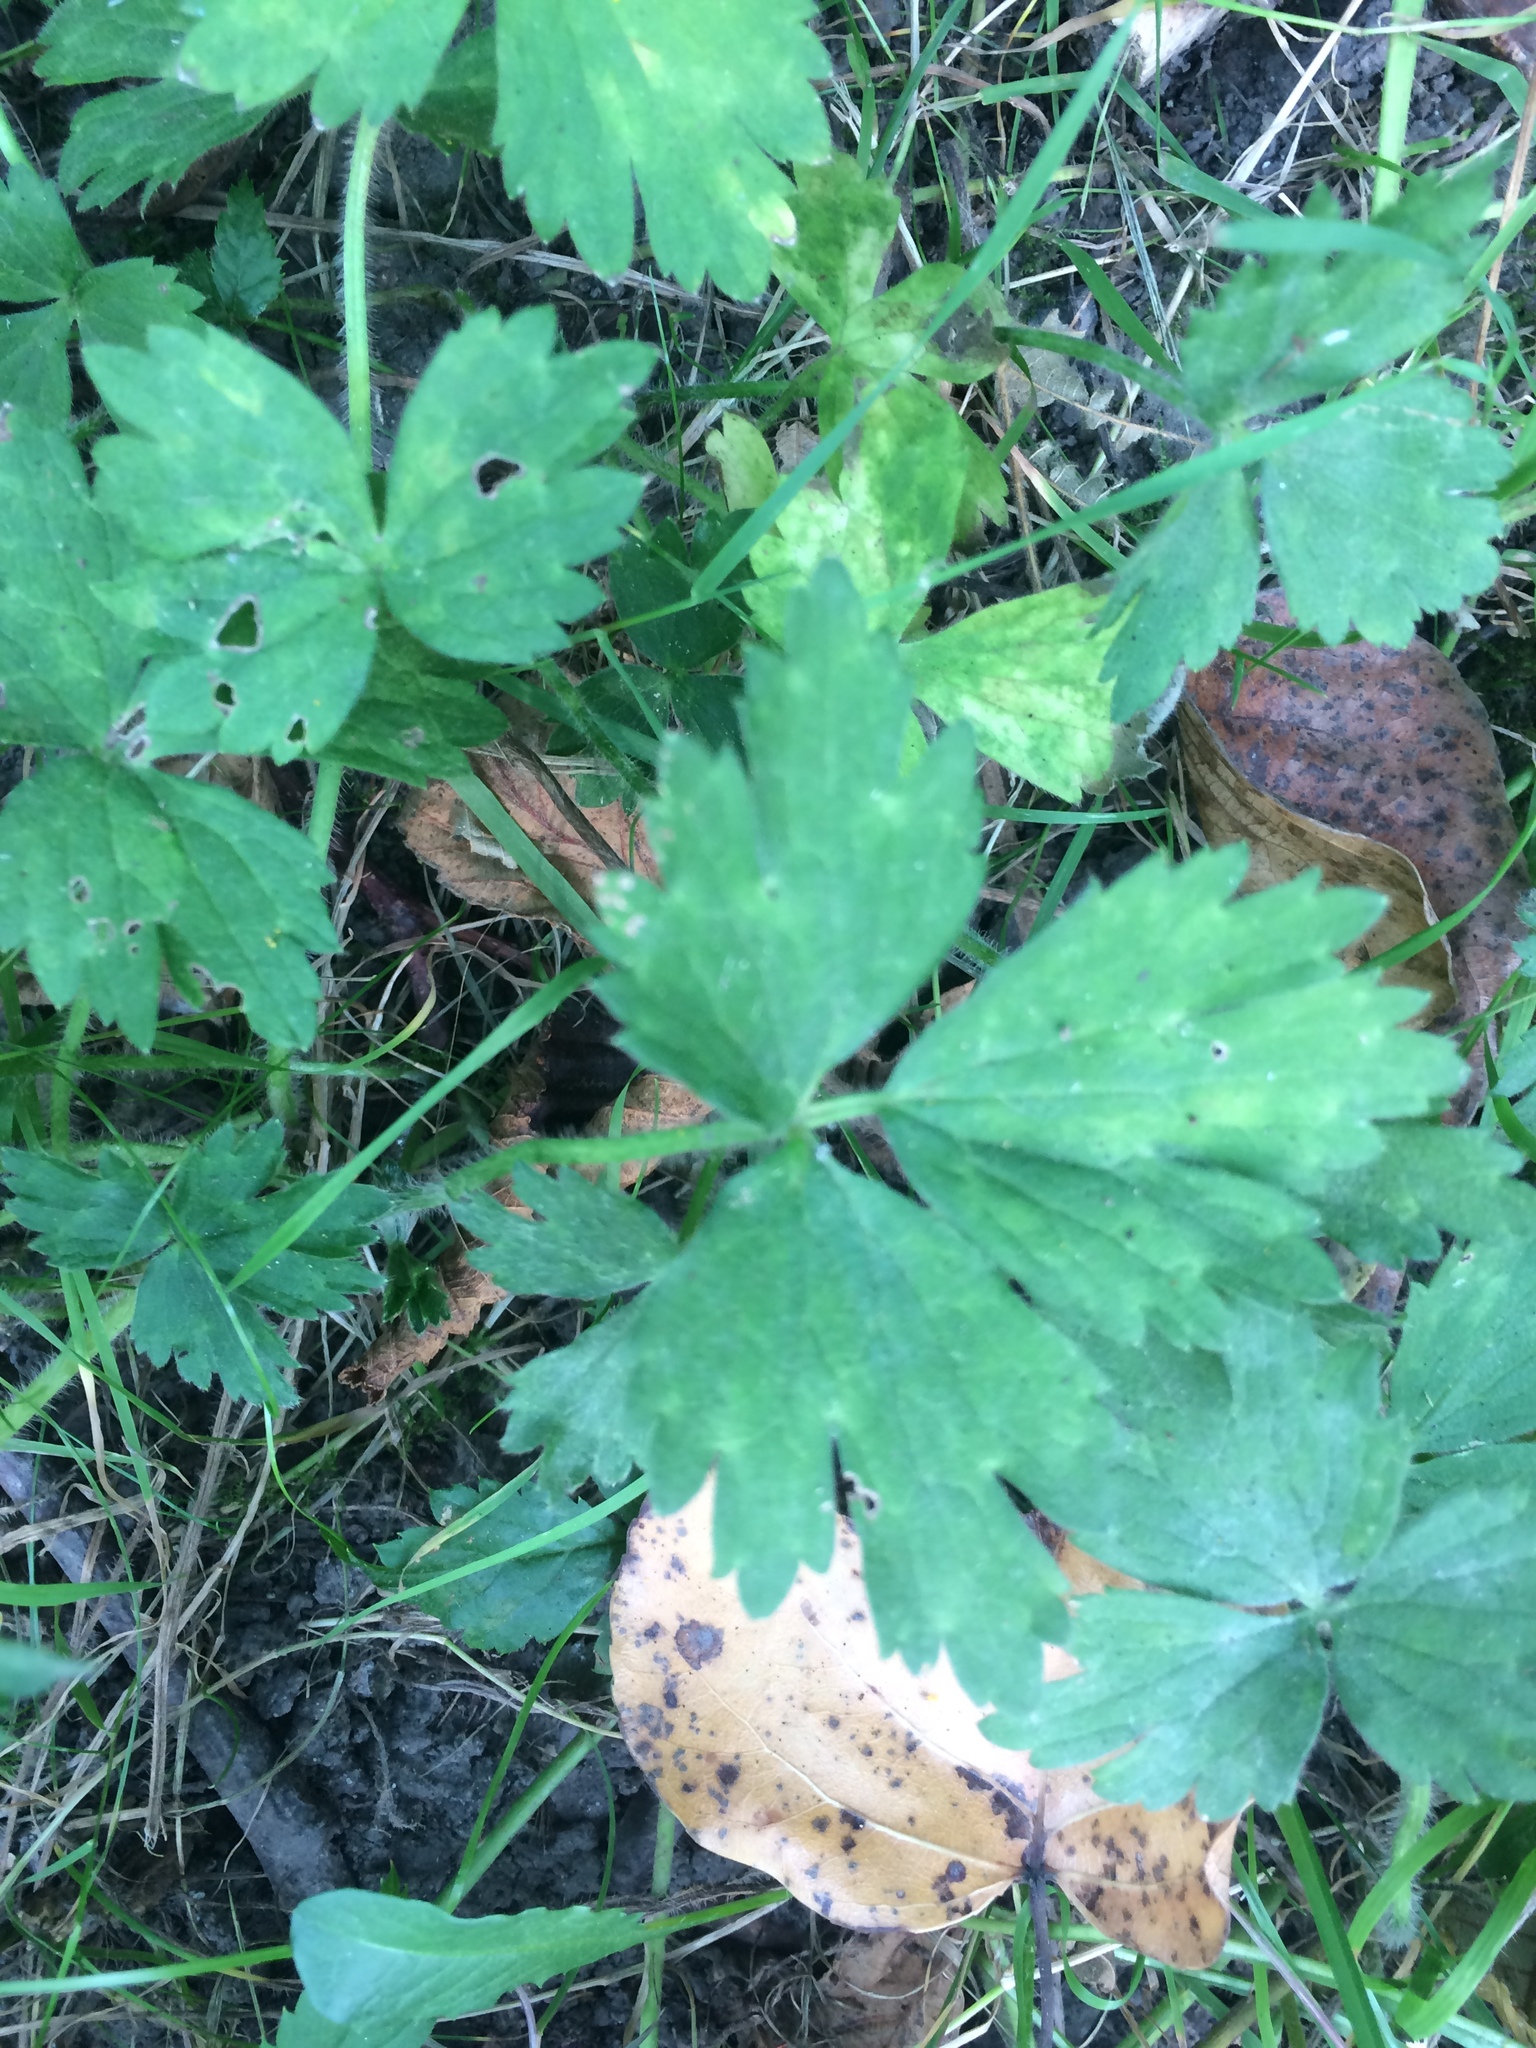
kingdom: Plantae
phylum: Tracheophyta
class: Magnoliopsida
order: Ranunculales
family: Ranunculaceae
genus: Ranunculus
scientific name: Ranunculus repens
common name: Creeping buttercup
